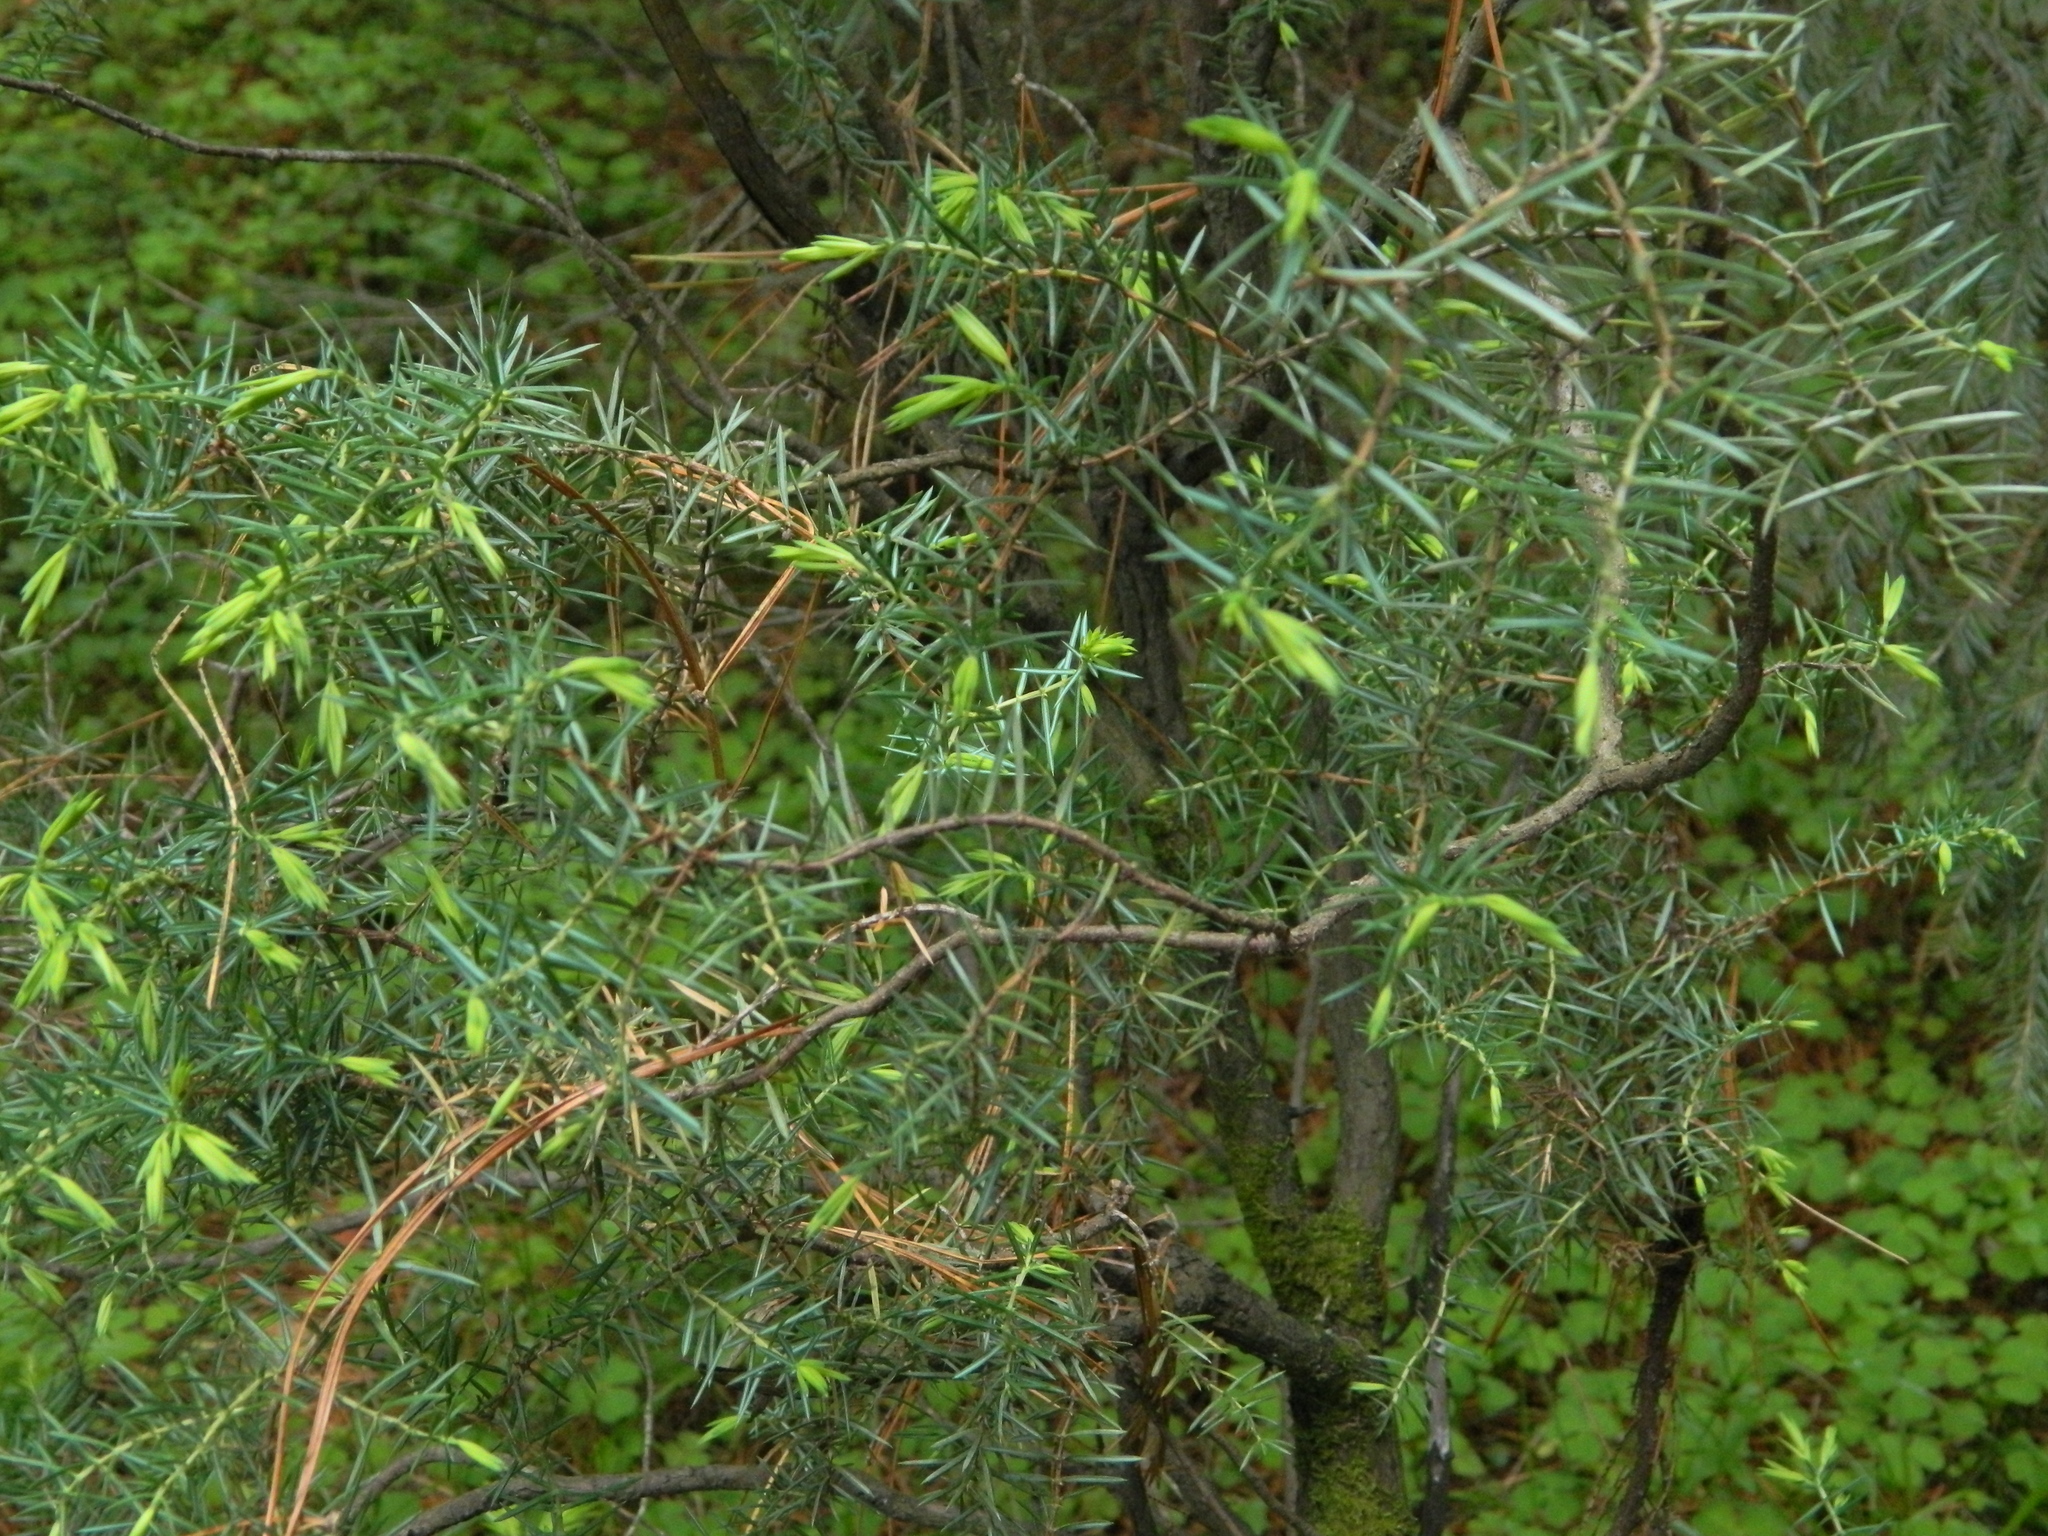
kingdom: Plantae
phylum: Tracheophyta
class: Pinopsida
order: Pinales
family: Cupressaceae
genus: Juniperus
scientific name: Juniperus communis
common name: Common juniper
